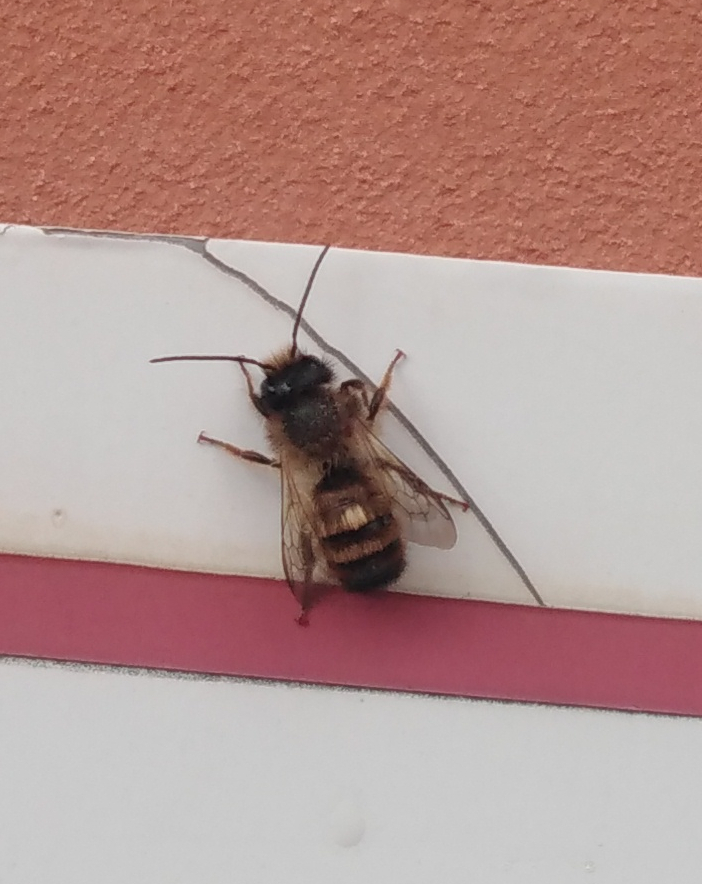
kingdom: Animalia
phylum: Arthropoda
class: Insecta
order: Hymenoptera
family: Megachilidae
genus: Osmia
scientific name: Osmia bicornis
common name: Red mason bee
